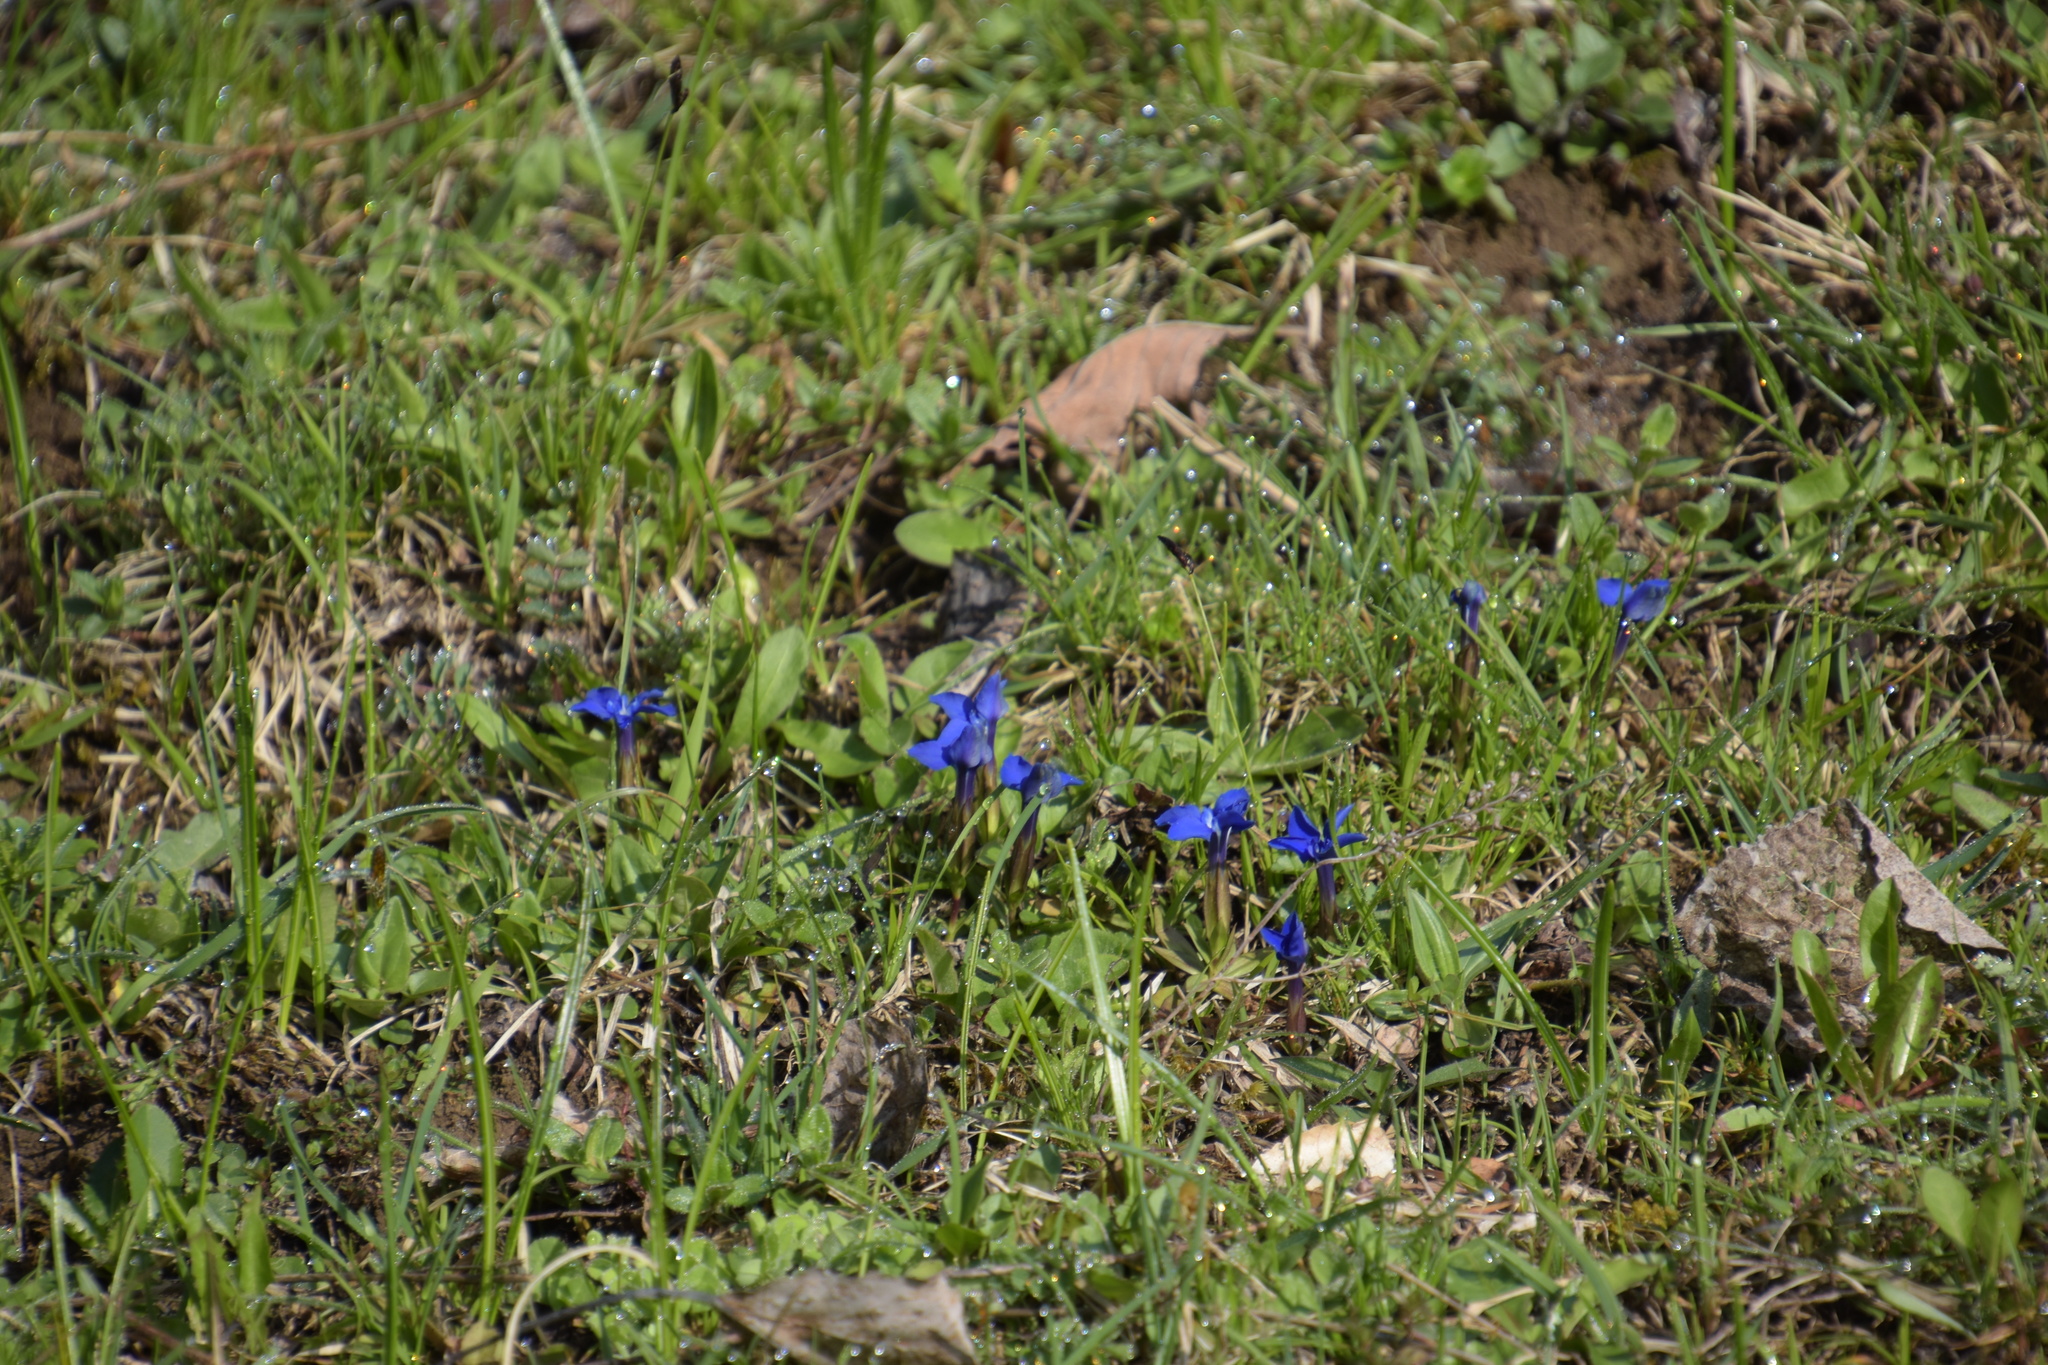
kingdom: Plantae
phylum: Tracheophyta
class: Magnoliopsida
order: Gentianales
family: Gentianaceae
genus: Gentiana
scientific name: Gentiana verna
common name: Spring gentian
